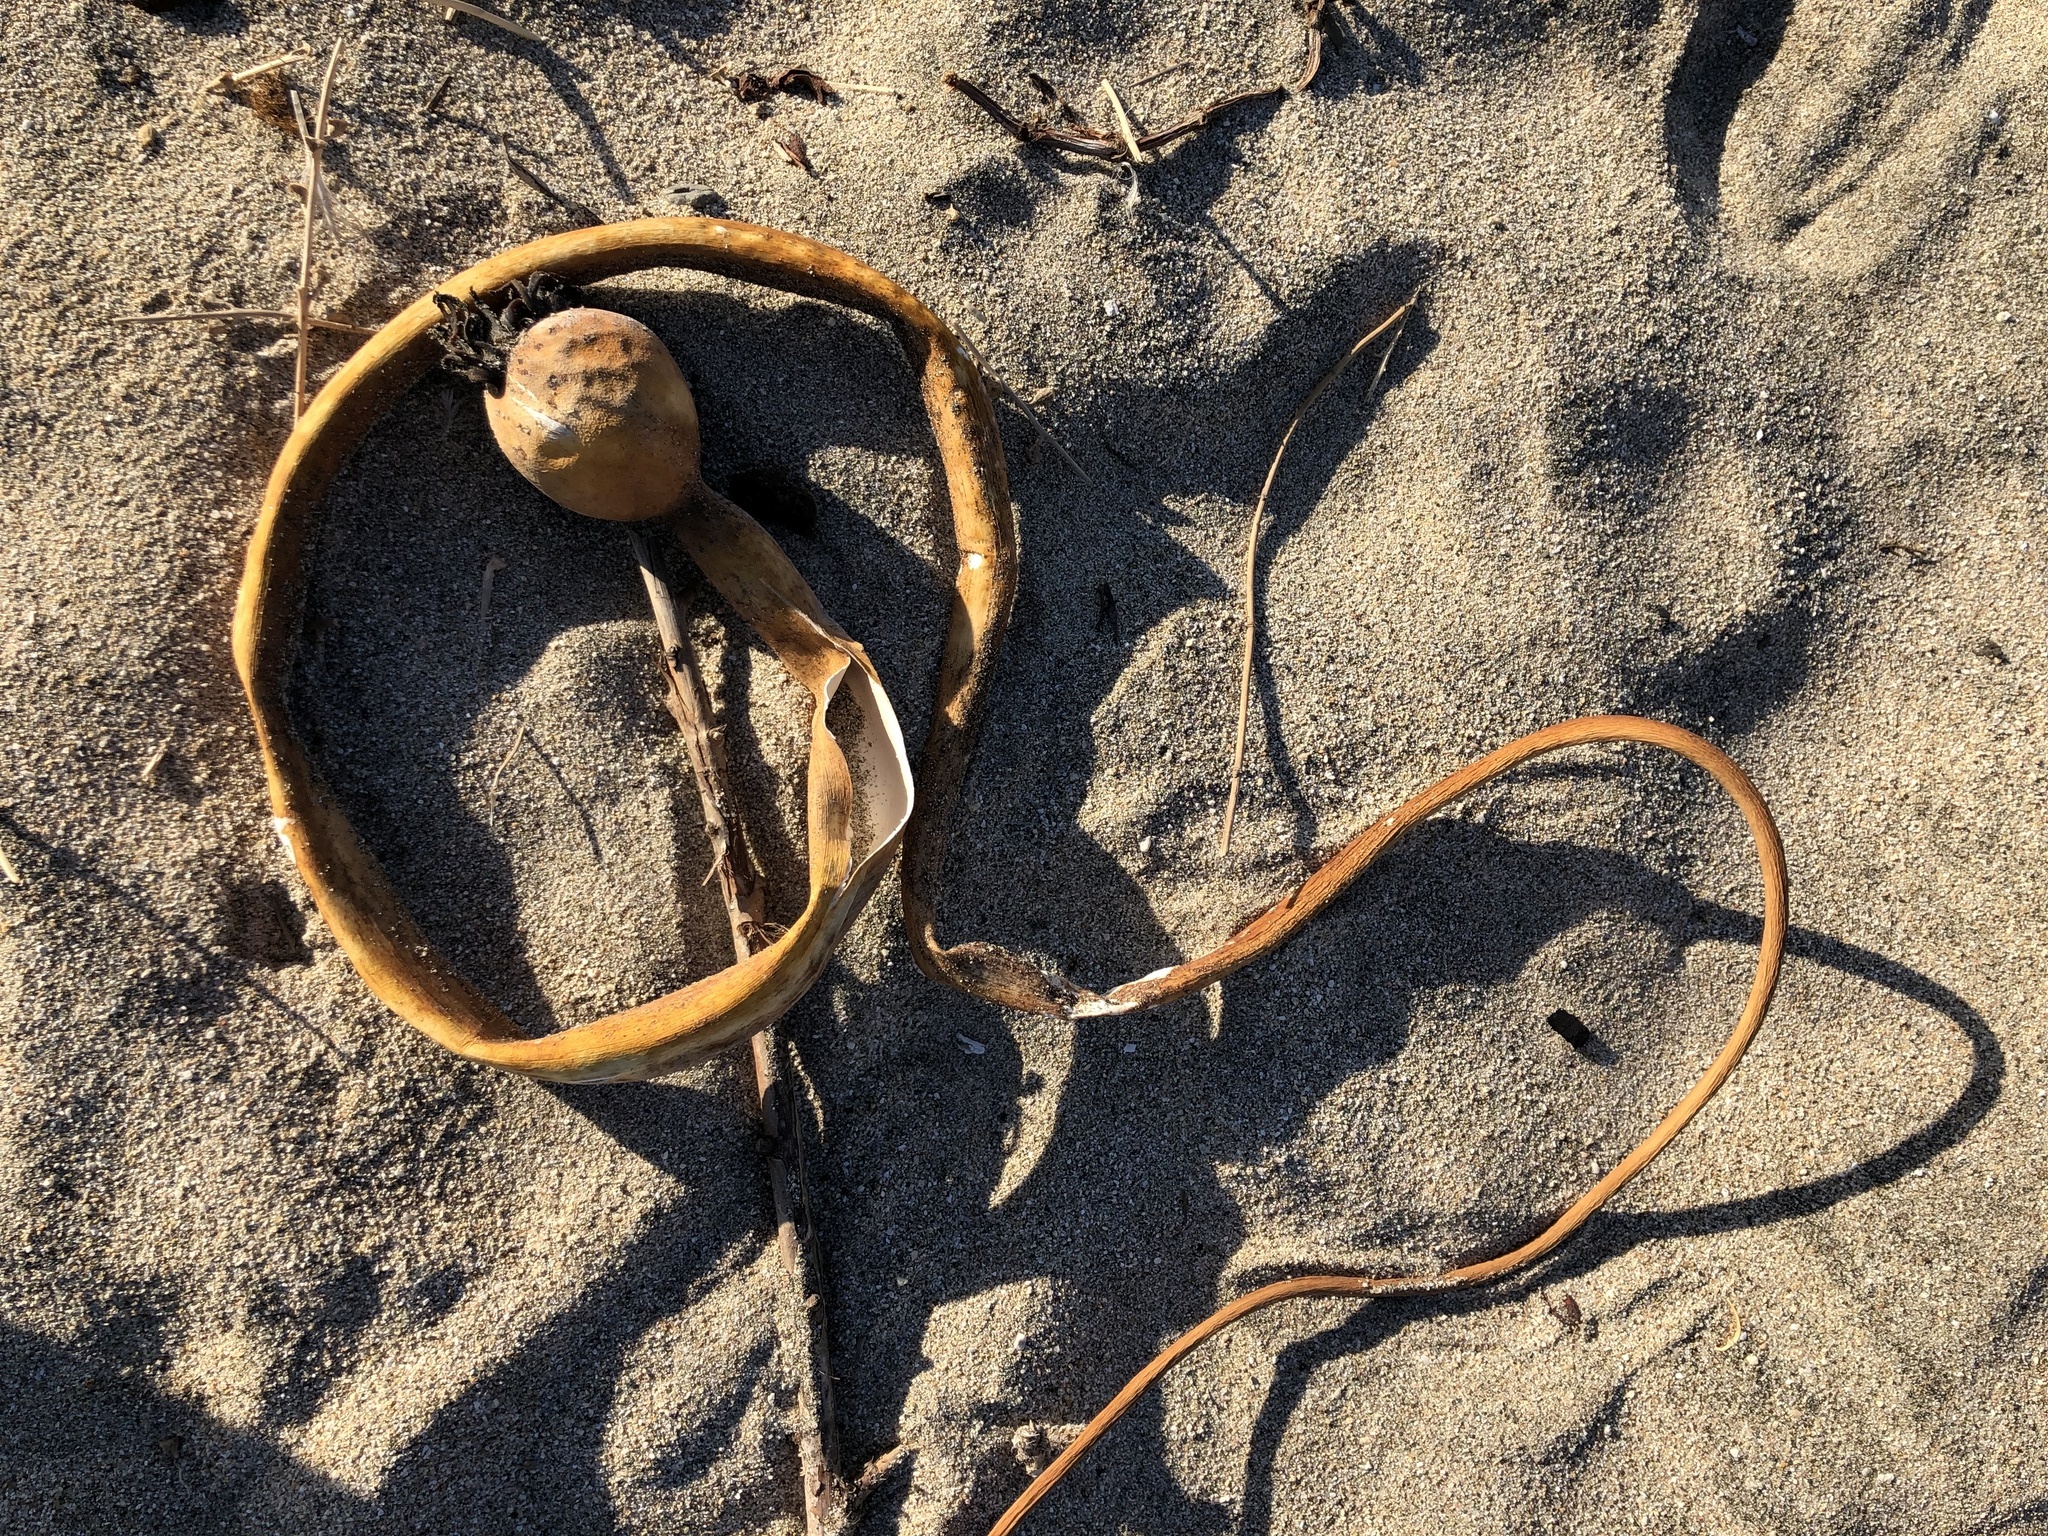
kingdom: Chromista
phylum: Ochrophyta
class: Phaeophyceae
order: Laminariales
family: Laminariaceae
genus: Nereocystis
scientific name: Nereocystis luetkeana
